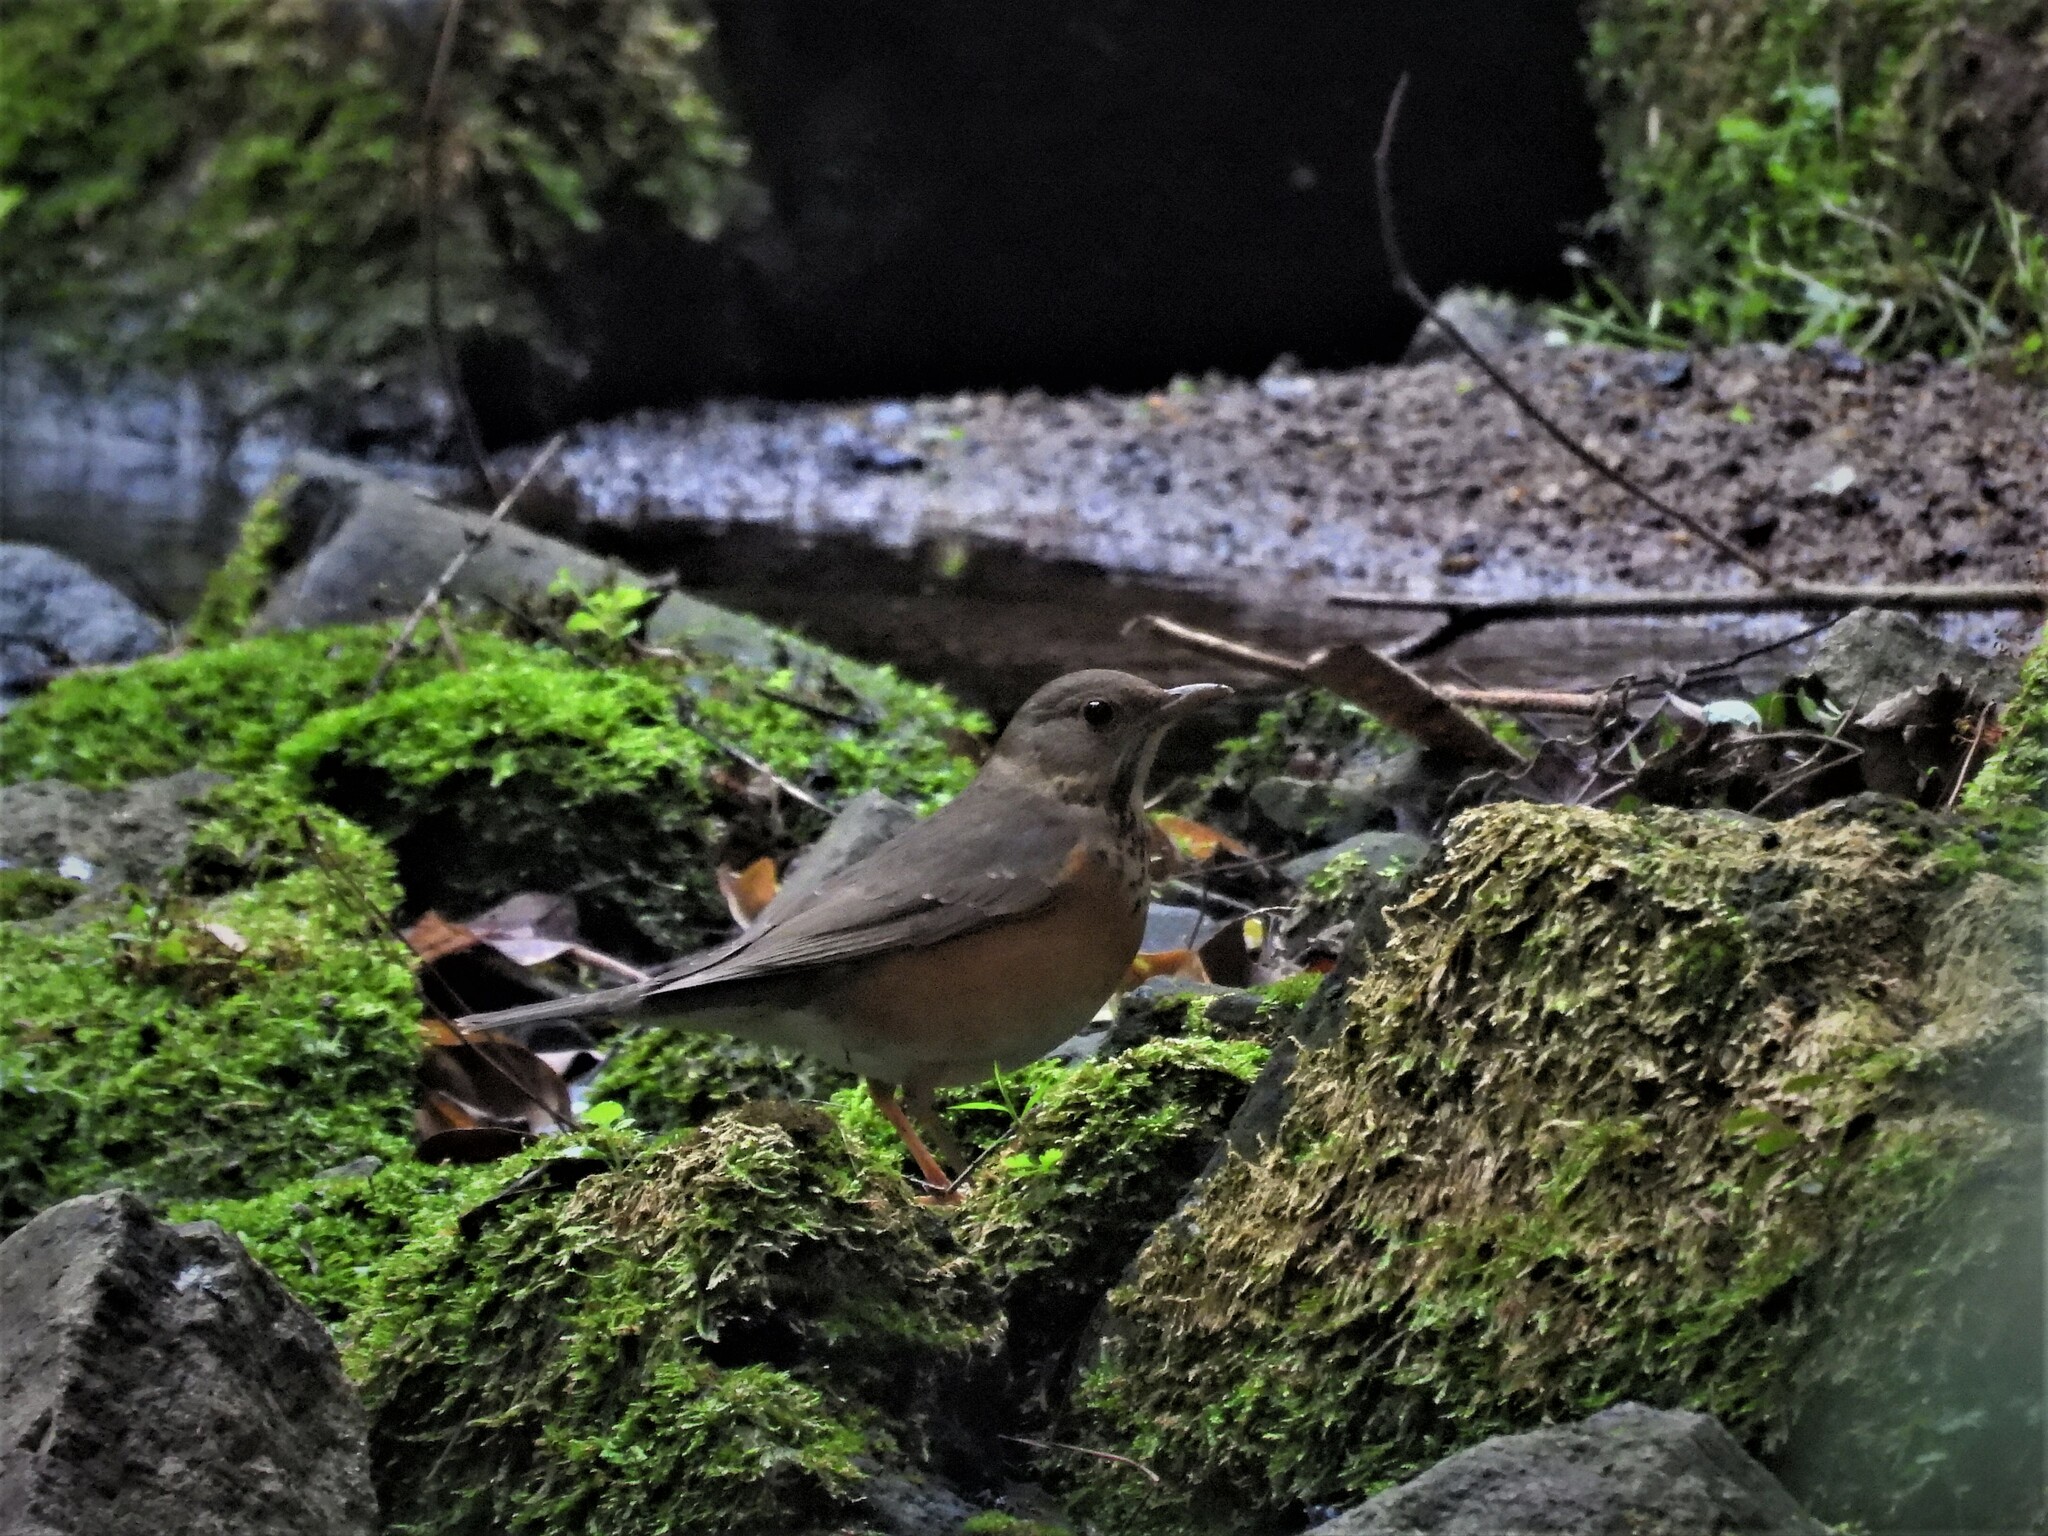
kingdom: Animalia
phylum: Chordata
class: Aves
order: Passeriformes
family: Turdidae
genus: Turdus
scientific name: Turdus hortulorum
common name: Grey-backed thrush
